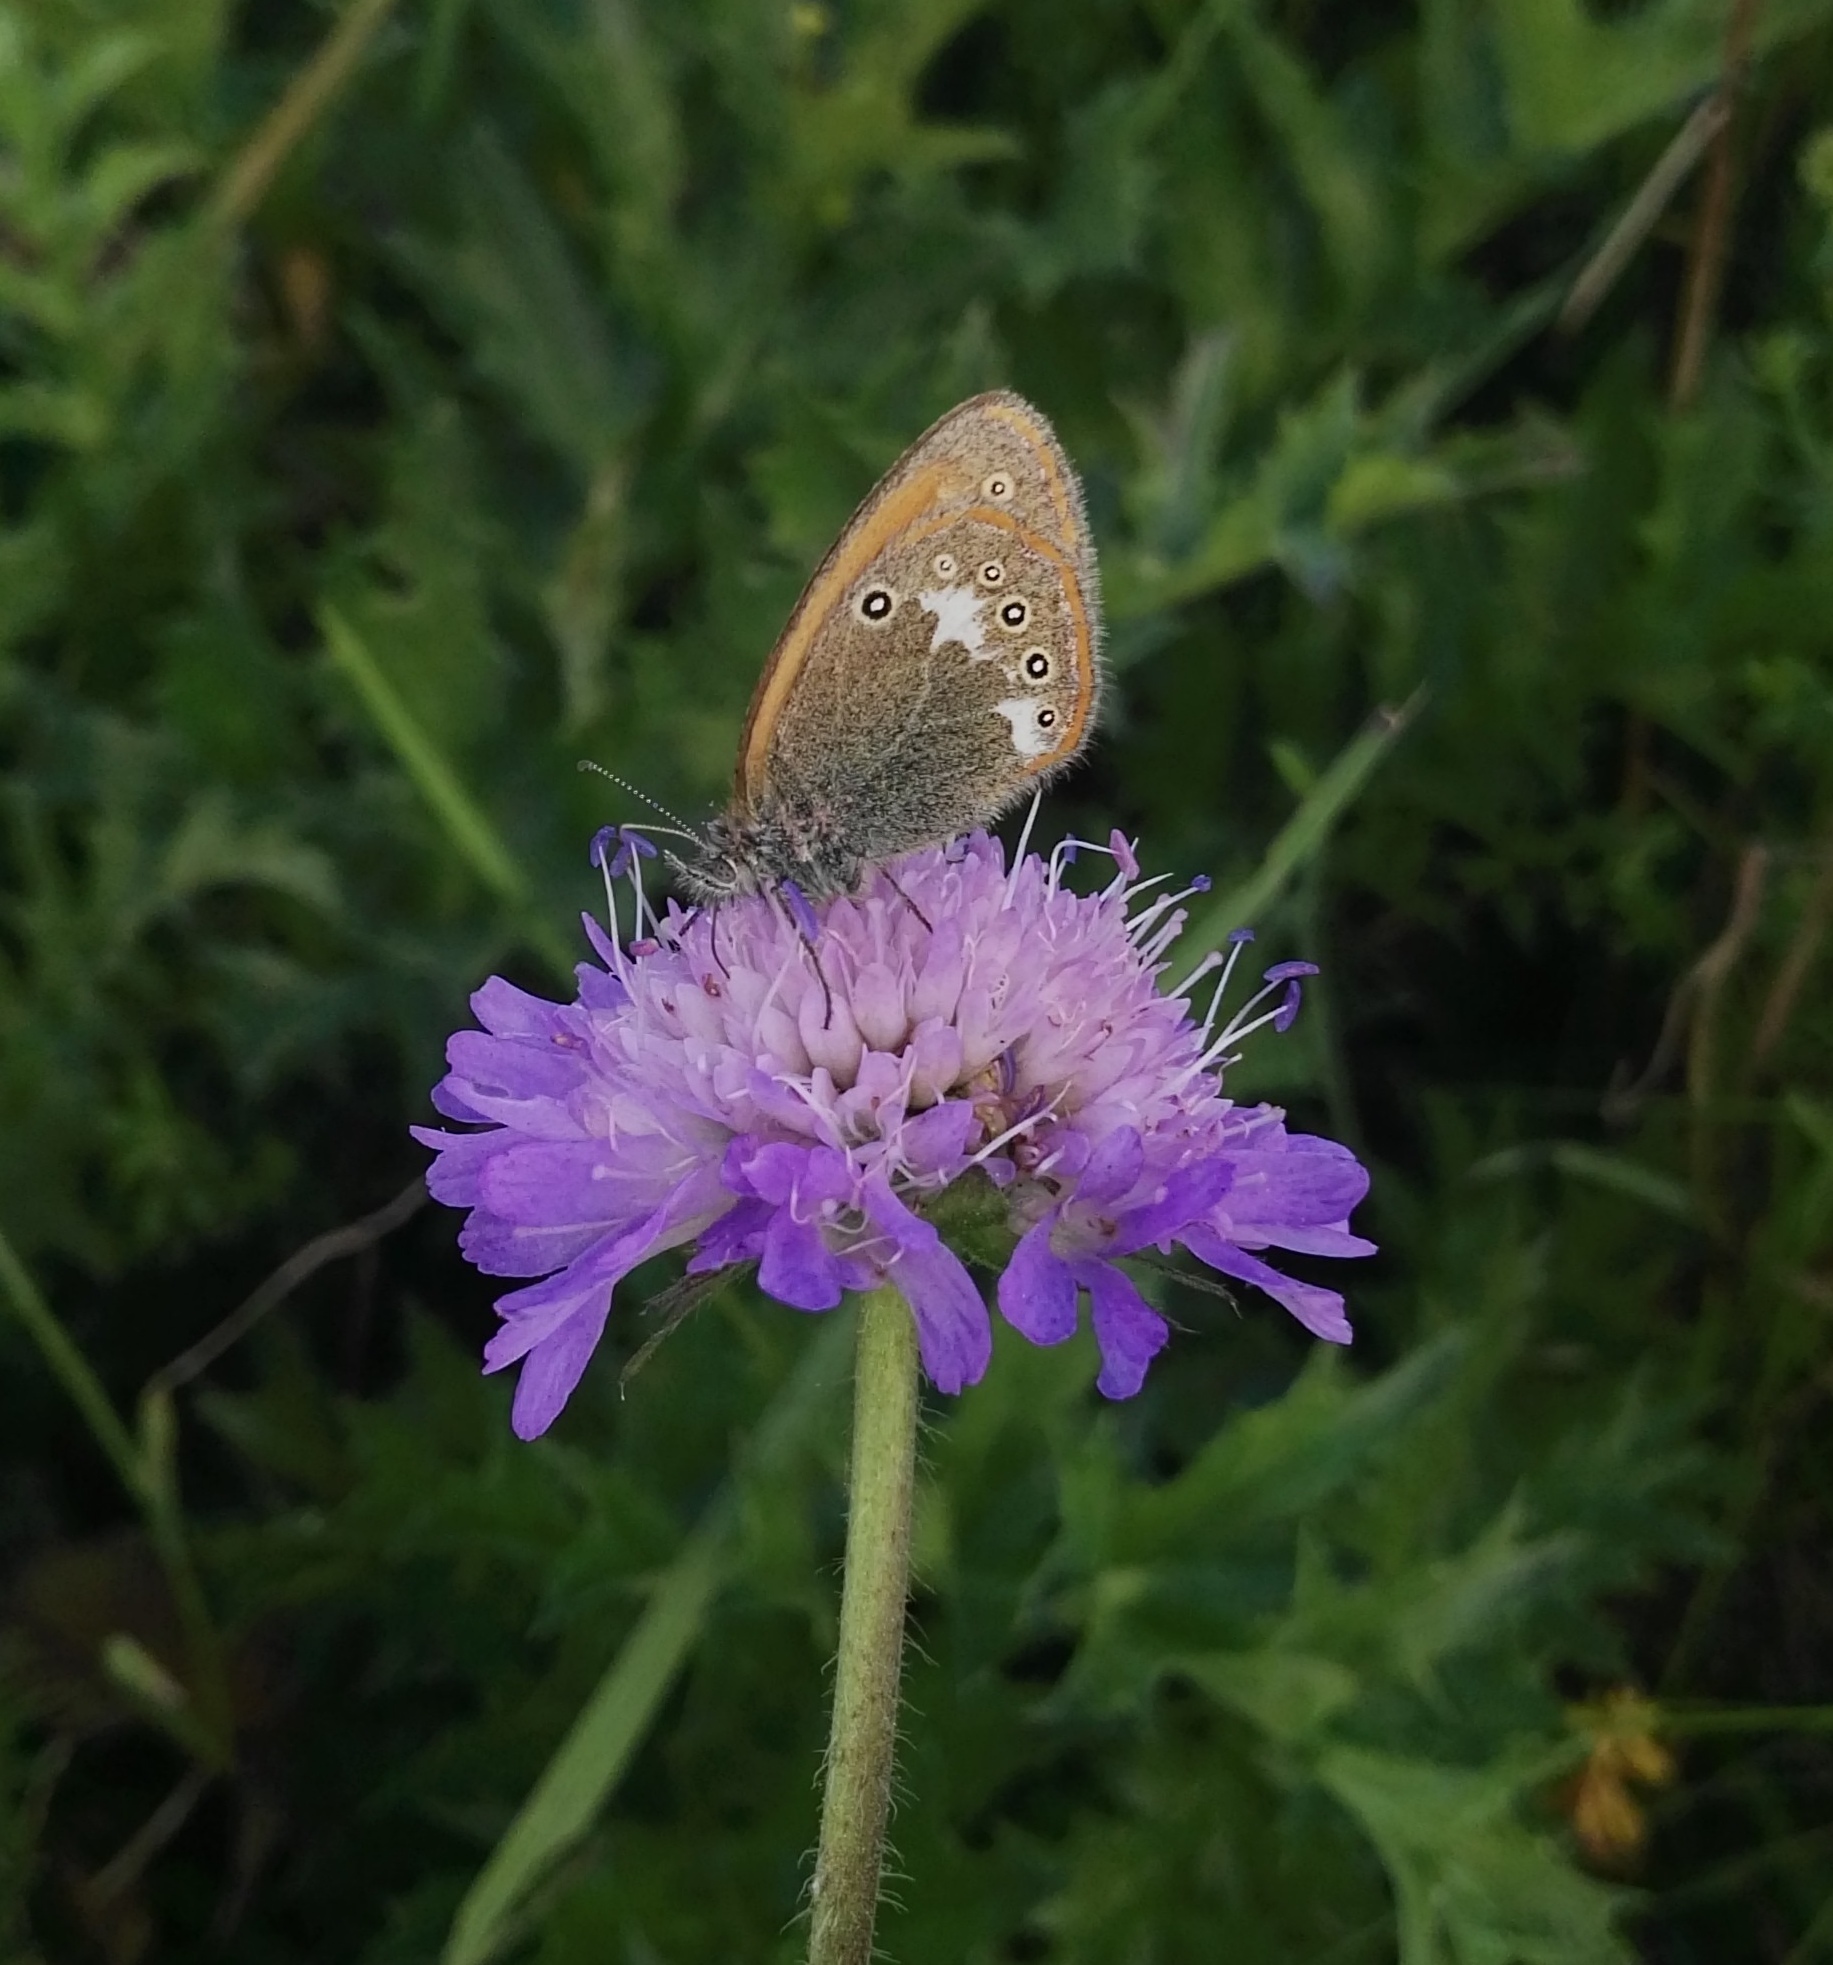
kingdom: Animalia
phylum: Arthropoda
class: Insecta
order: Lepidoptera
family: Nymphalidae
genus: Coenonympha
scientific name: Coenonympha iphis
